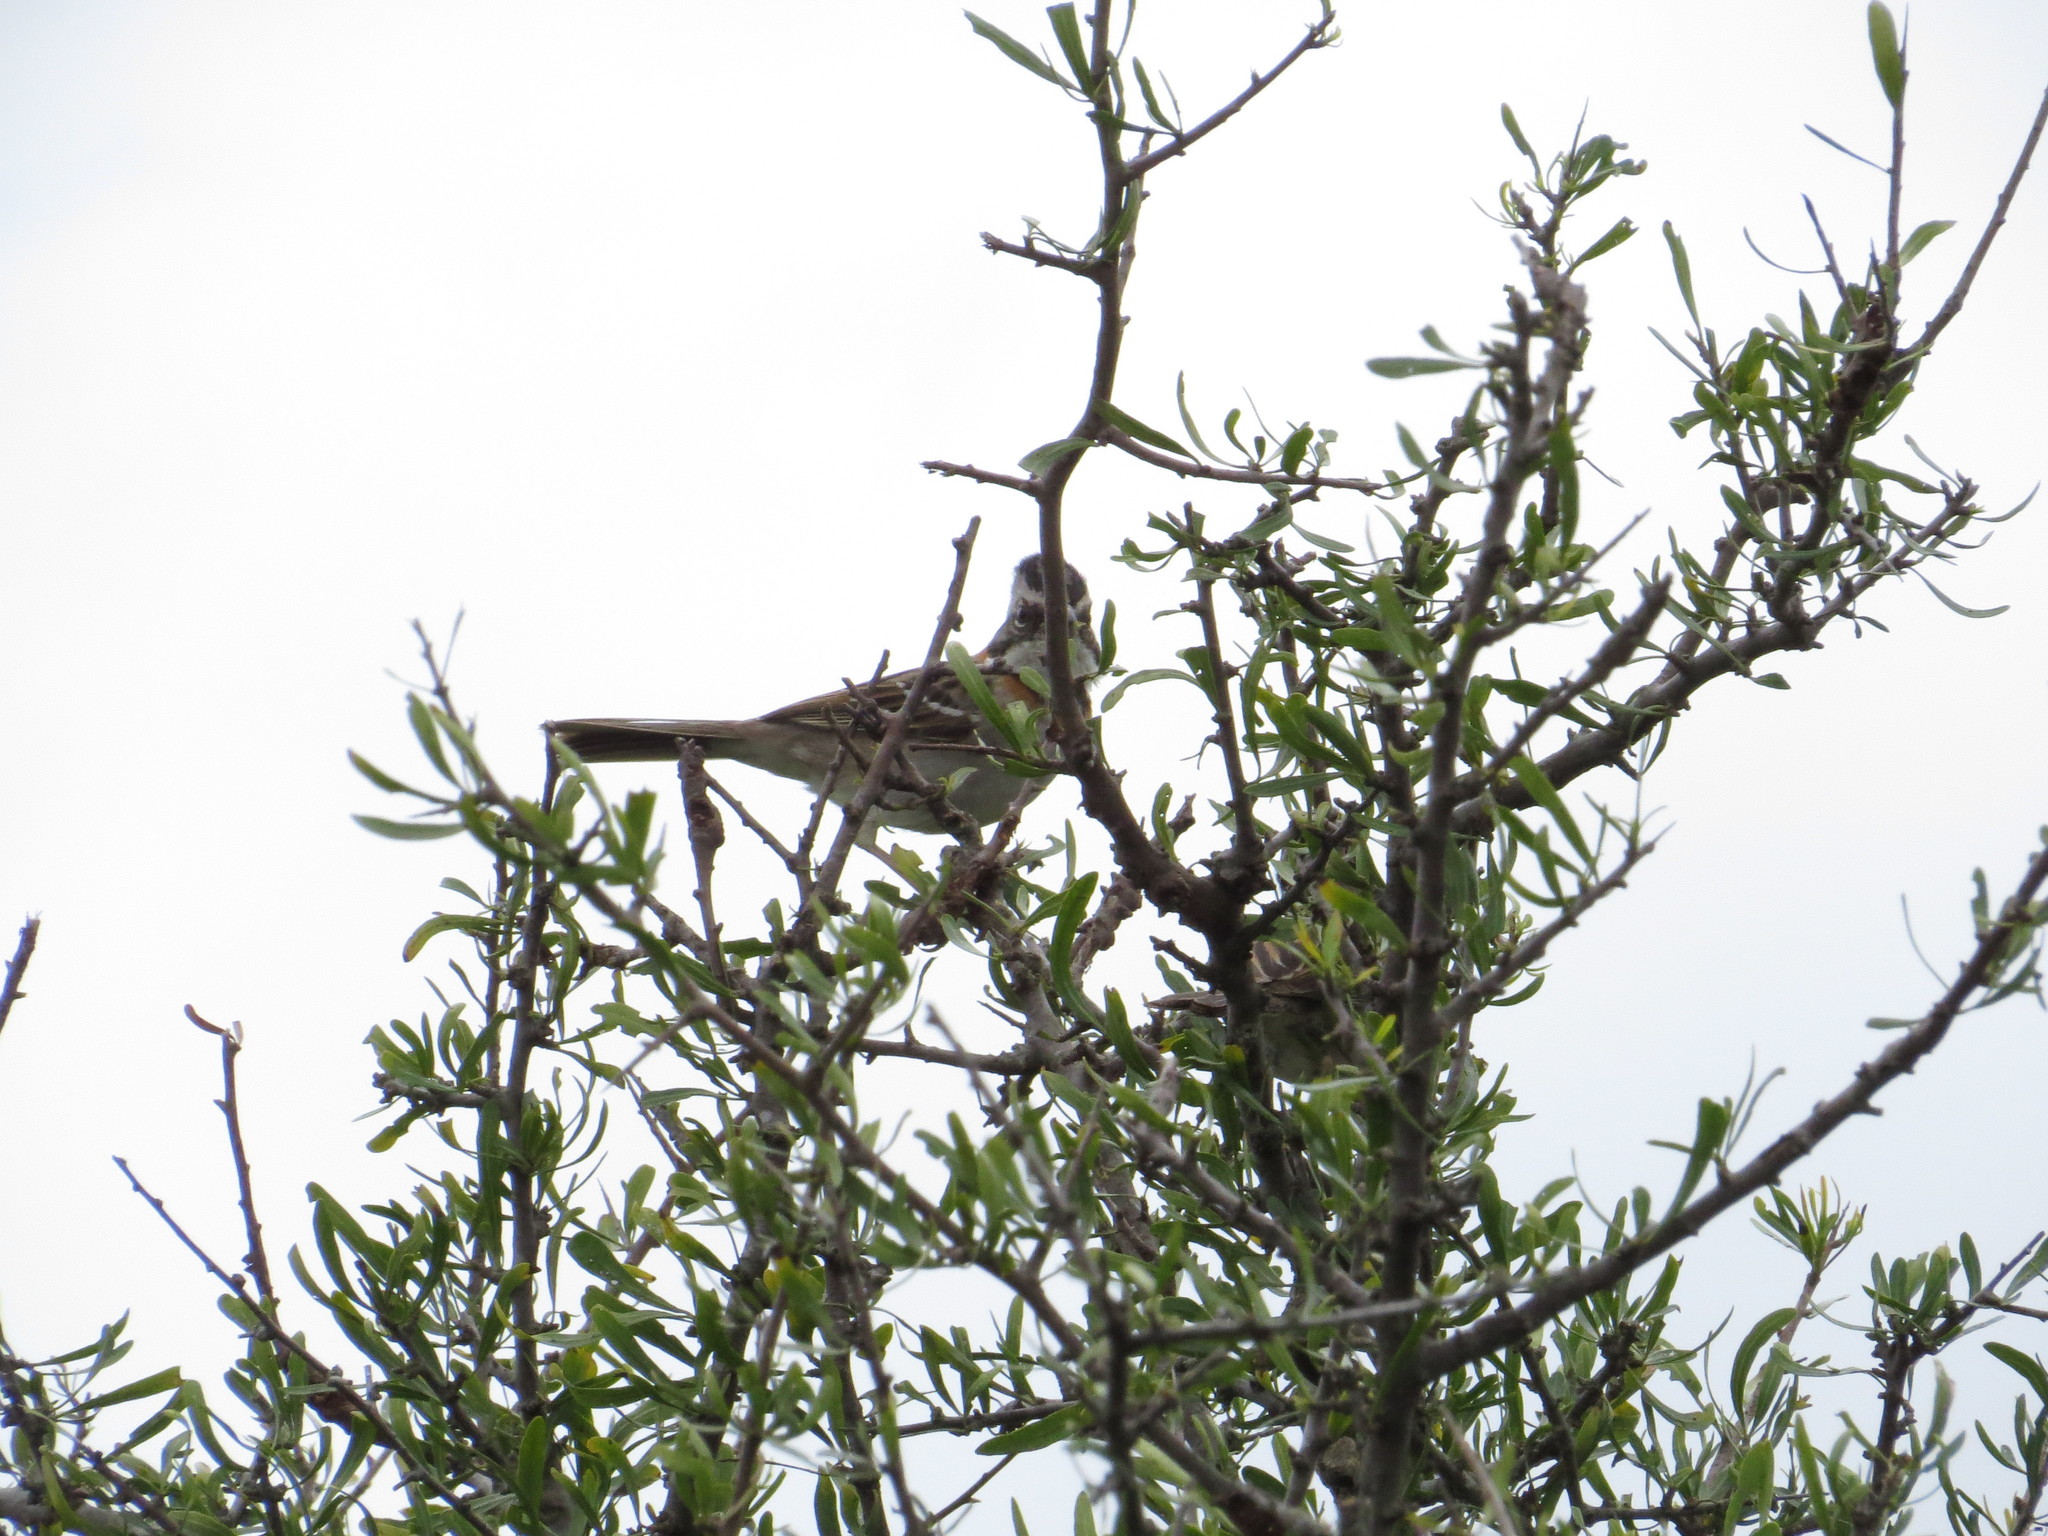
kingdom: Animalia
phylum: Chordata
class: Aves
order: Passeriformes
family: Passerellidae
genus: Zonotrichia
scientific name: Zonotrichia capensis
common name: Rufous-collared sparrow
